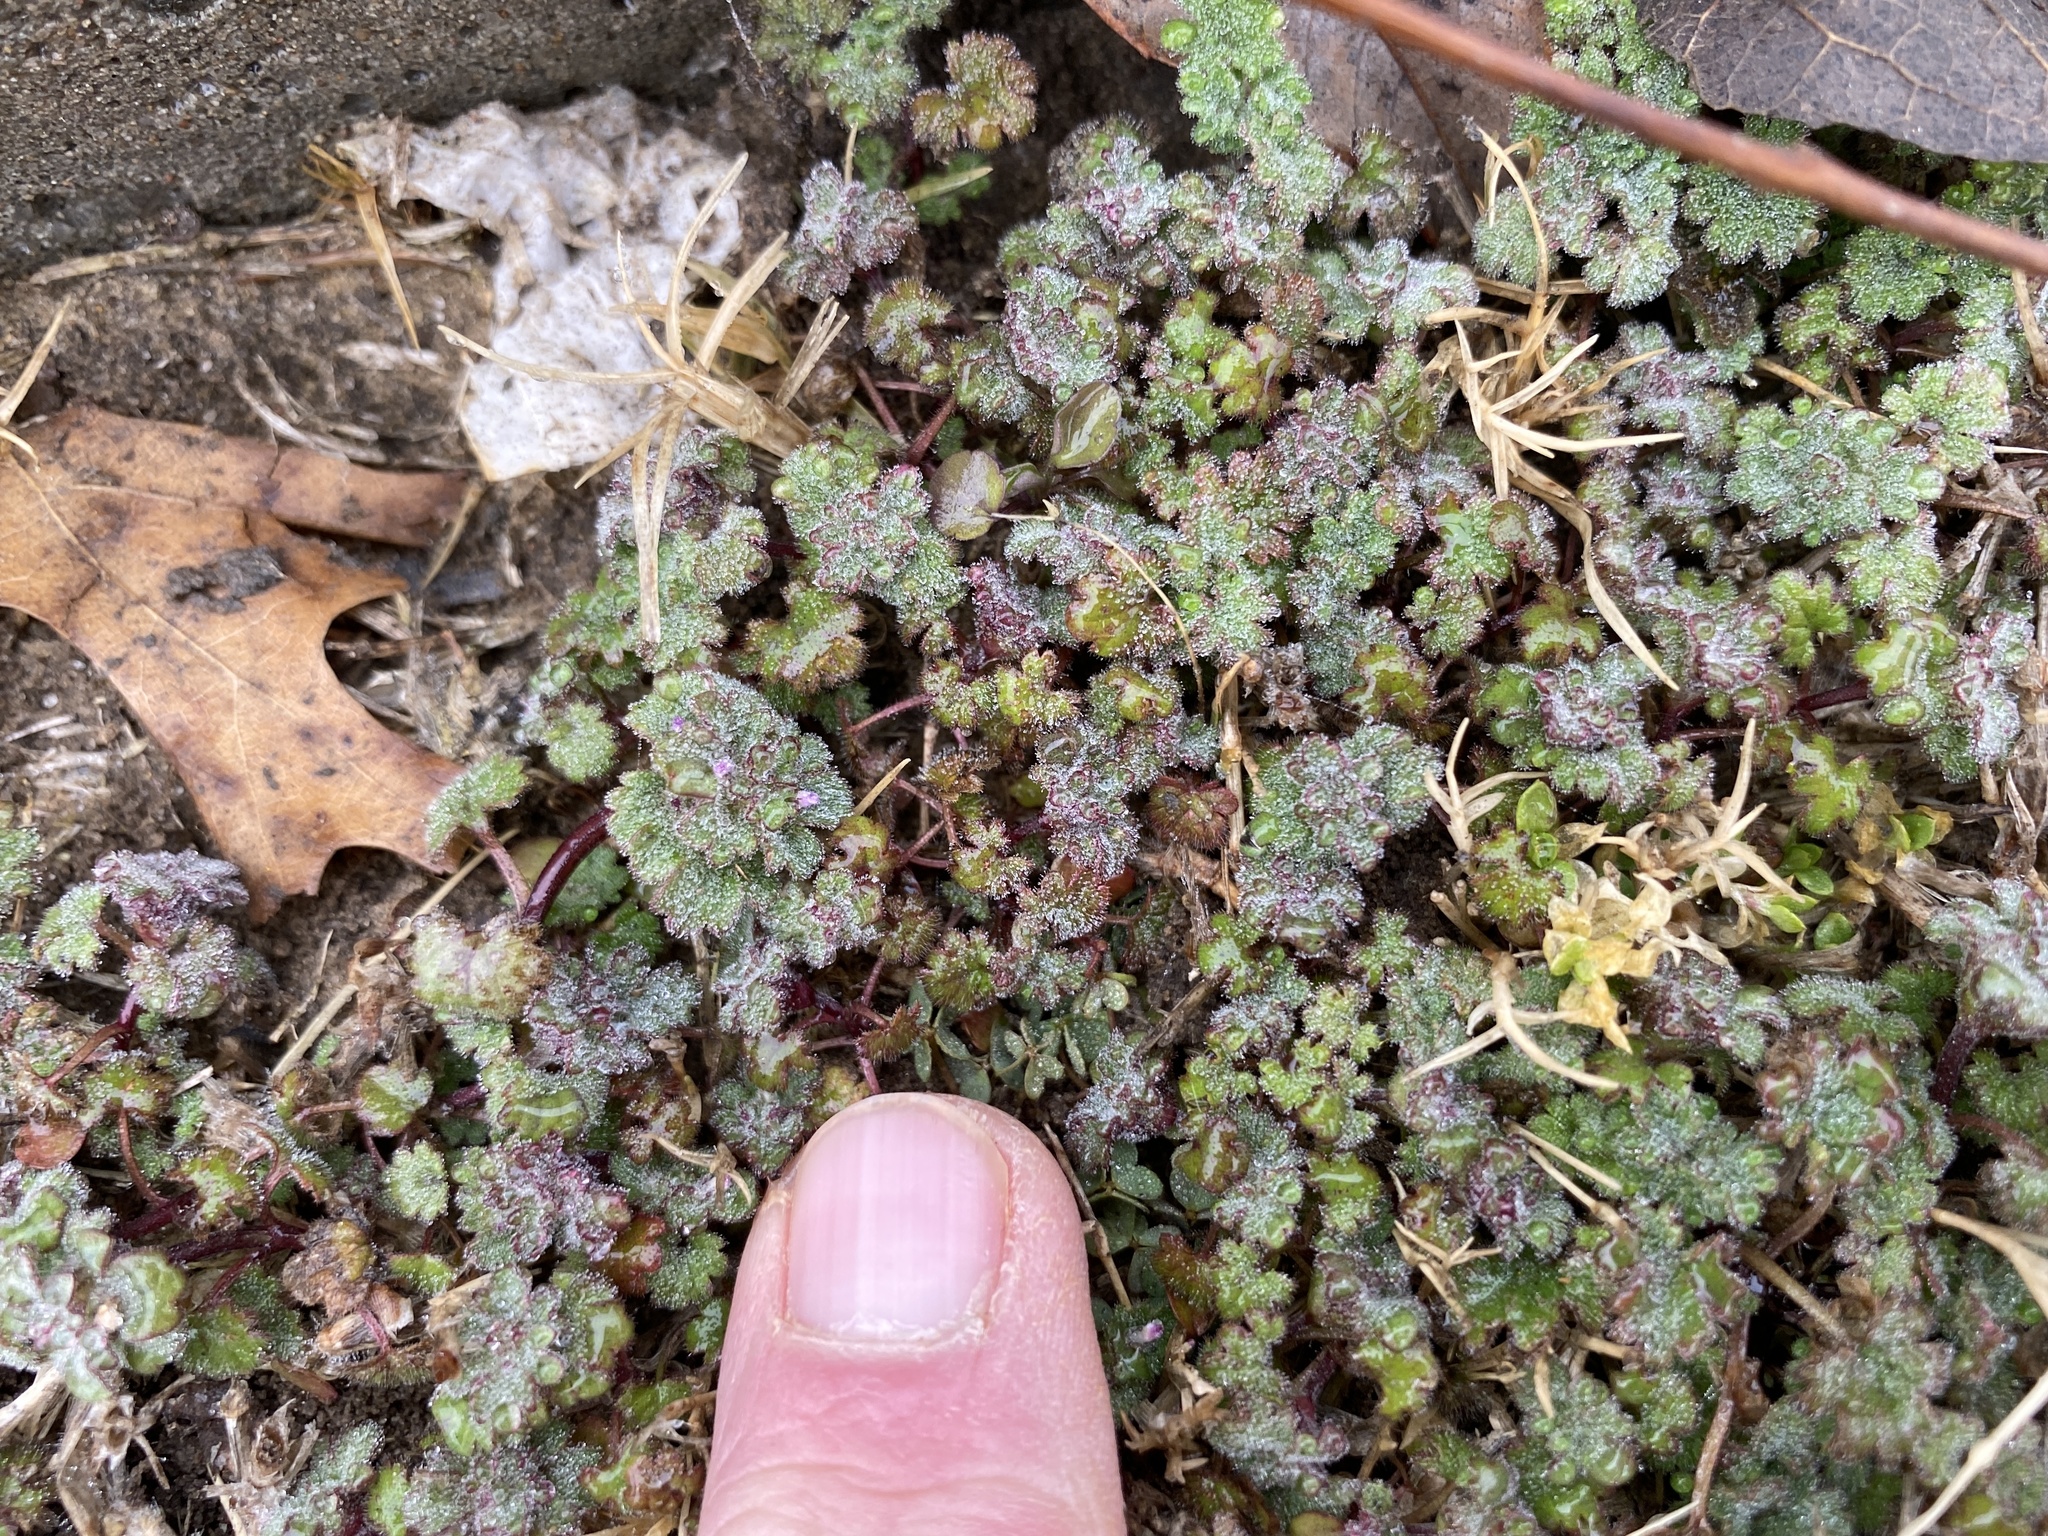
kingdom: Plantae
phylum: Tracheophyta
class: Magnoliopsida
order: Lamiales
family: Lamiaceae
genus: Lamium
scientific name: Lamium amplexicaule
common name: Henbit dead-nettle
